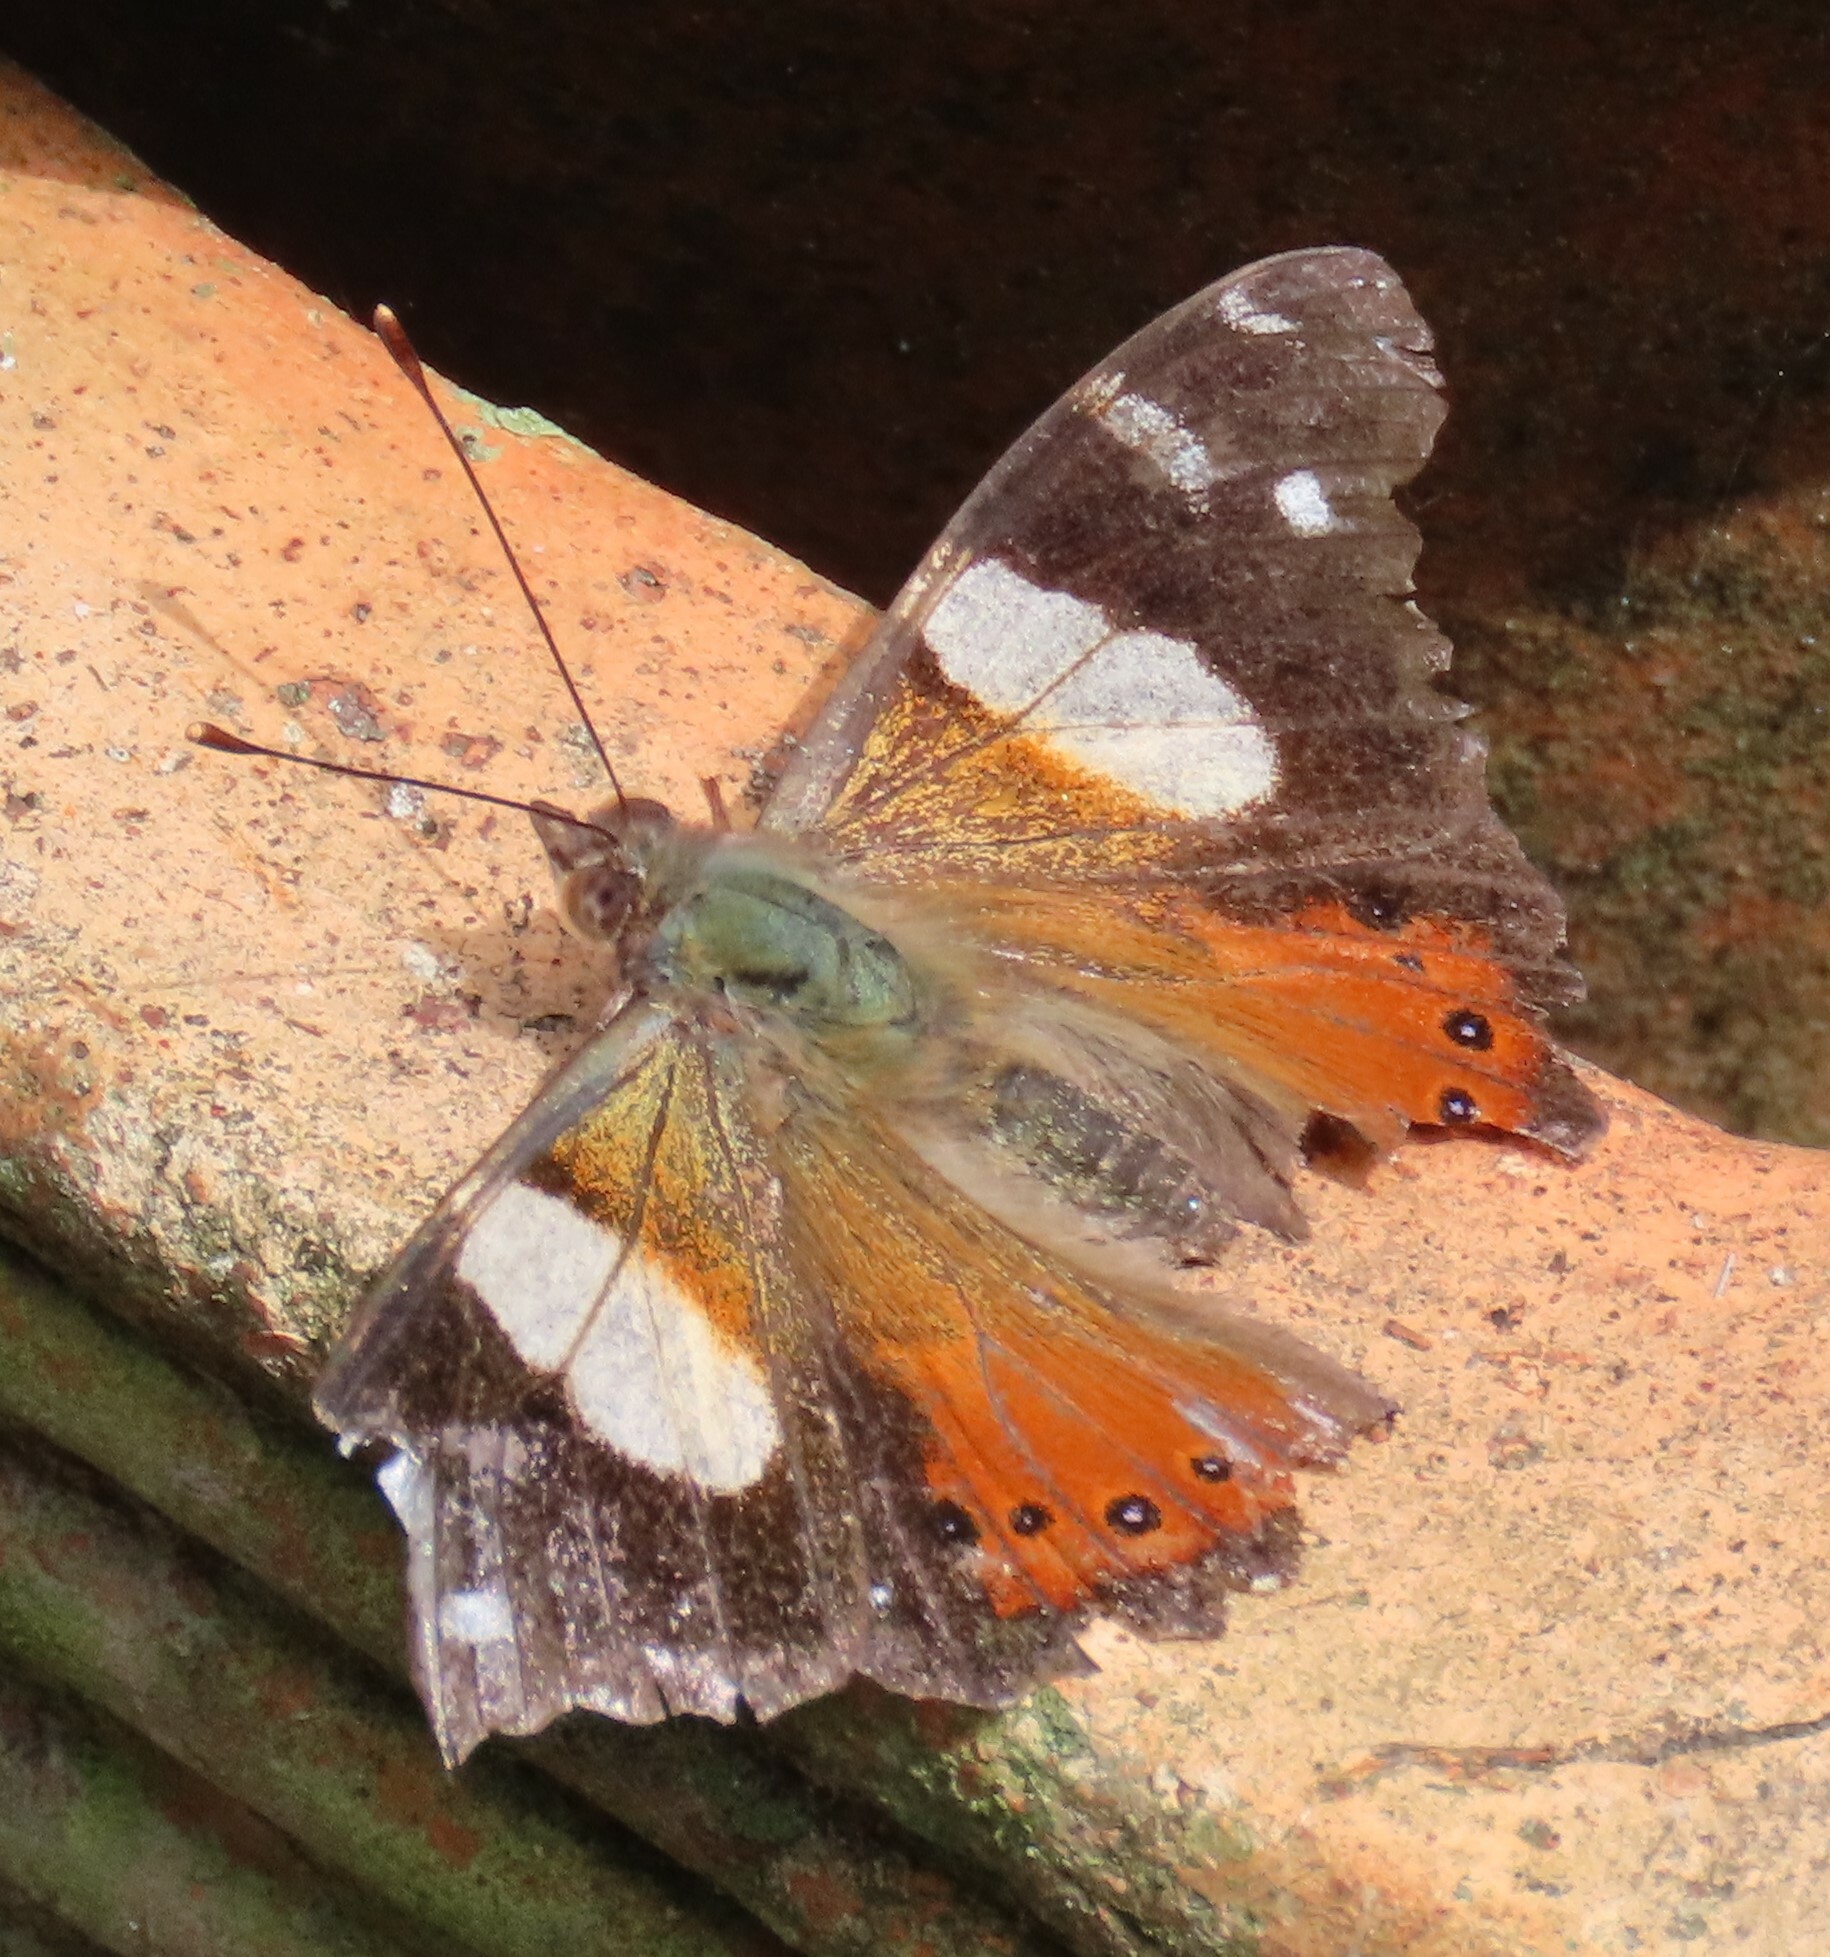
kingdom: Animalia
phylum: Arthropoda
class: Insecta
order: Lepidoptera
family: Nymphalidae
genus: Vanessa
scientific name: Vanessa itea
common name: Yellow admiral
